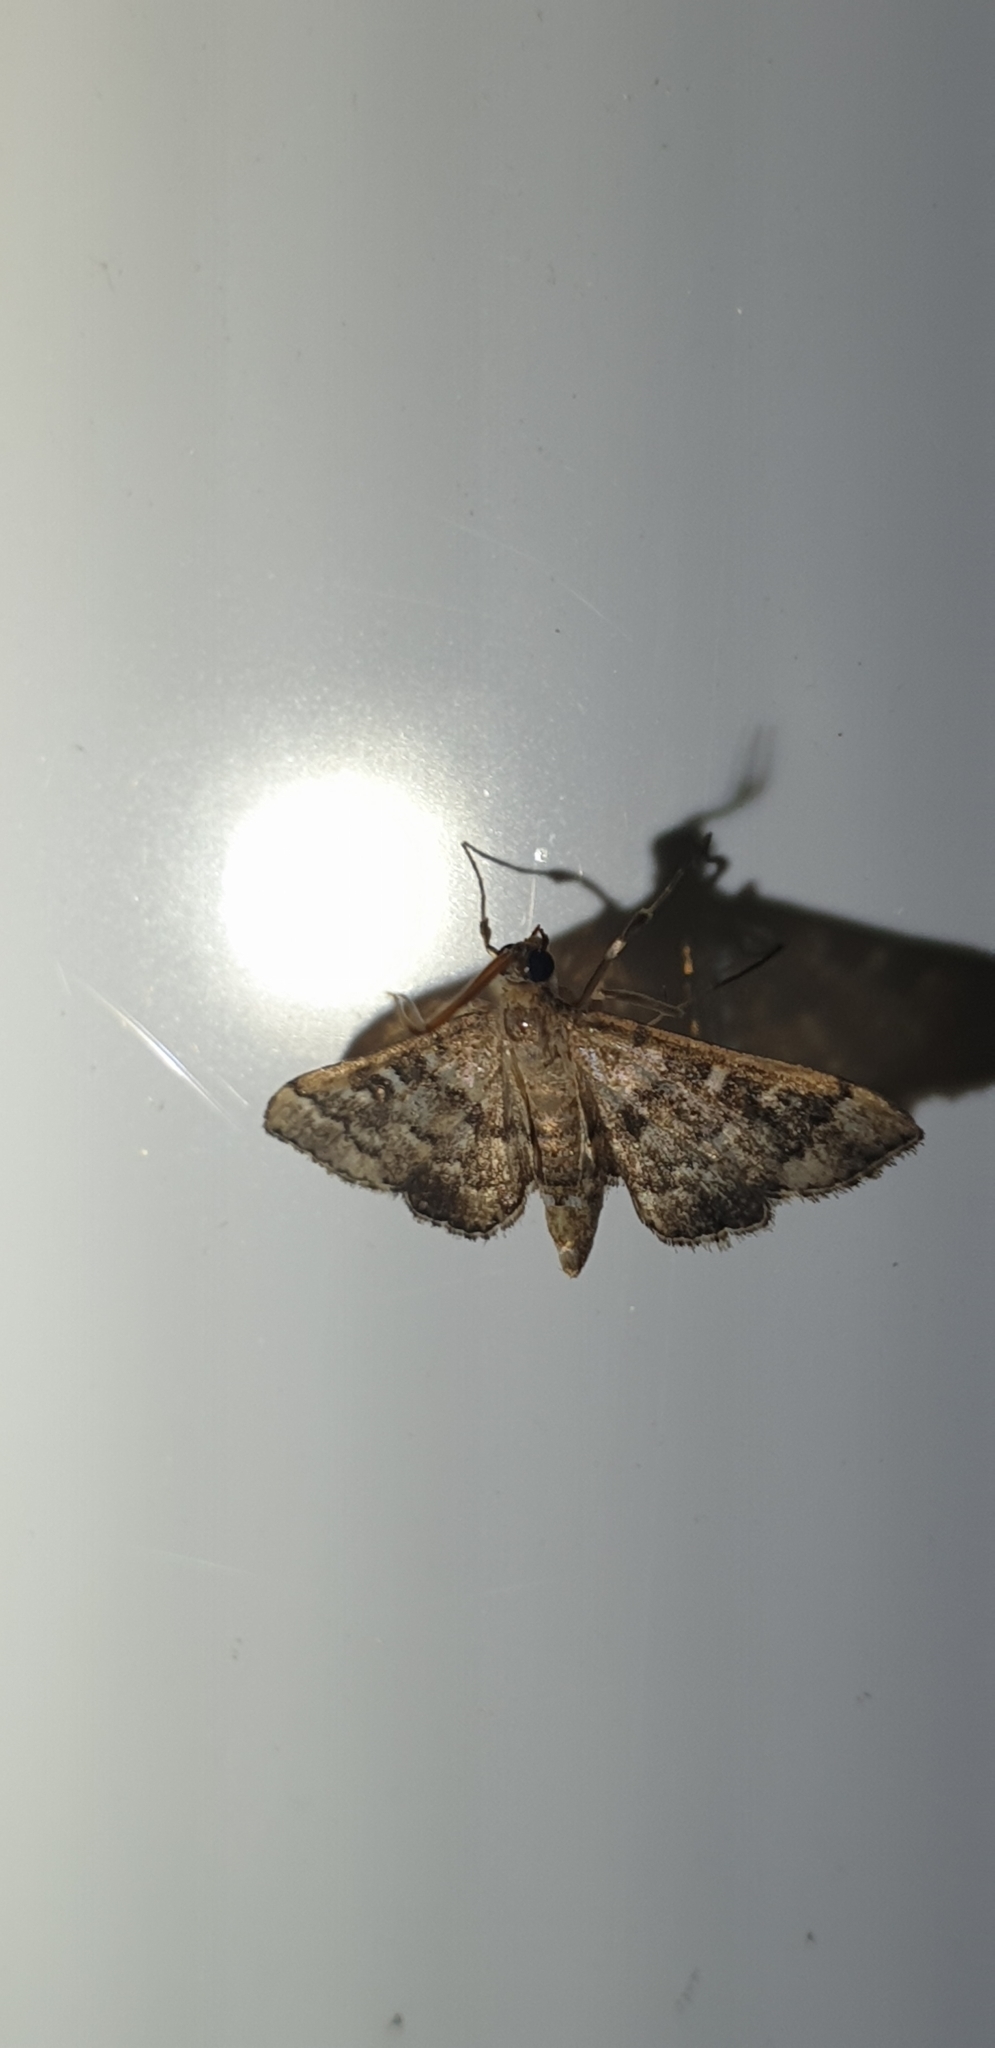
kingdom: Animalia
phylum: Arthropoda
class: Insecta
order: Lepidoptera
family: Crambidae
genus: Nacoleia
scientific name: Nacoleia rhoeoalis
